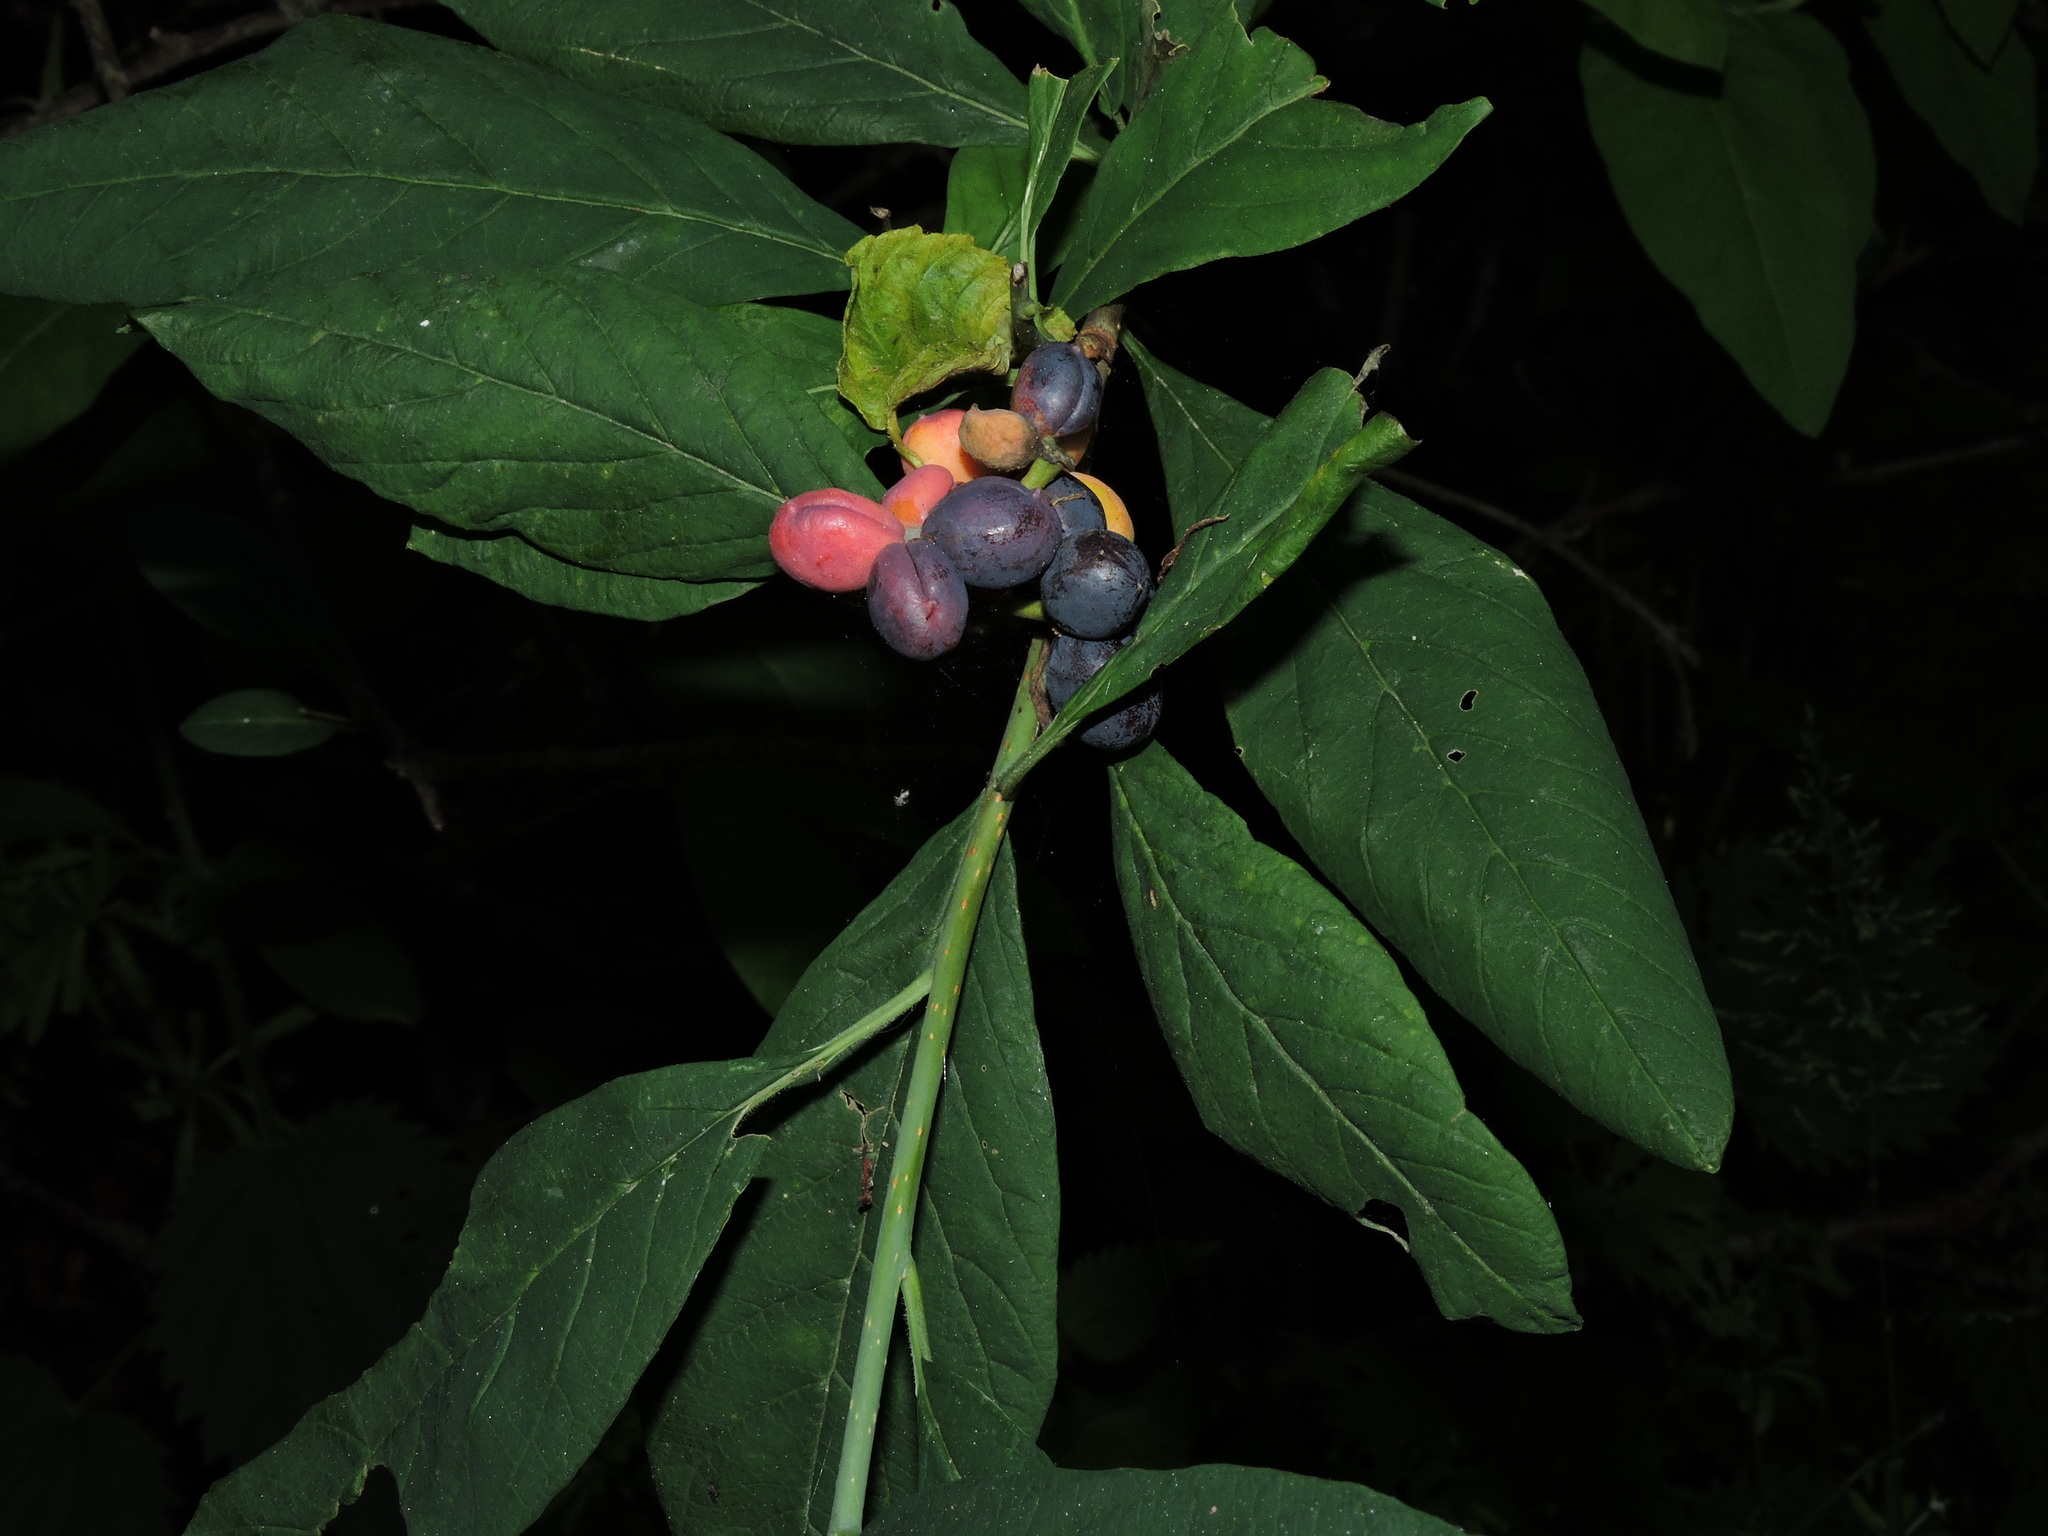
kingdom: Plantae
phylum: Tracheophyta
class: Magnoliopsida
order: Rosales
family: Rosaceae
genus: Oemleria
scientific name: Oemleria cerasiformis
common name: Osoberry
